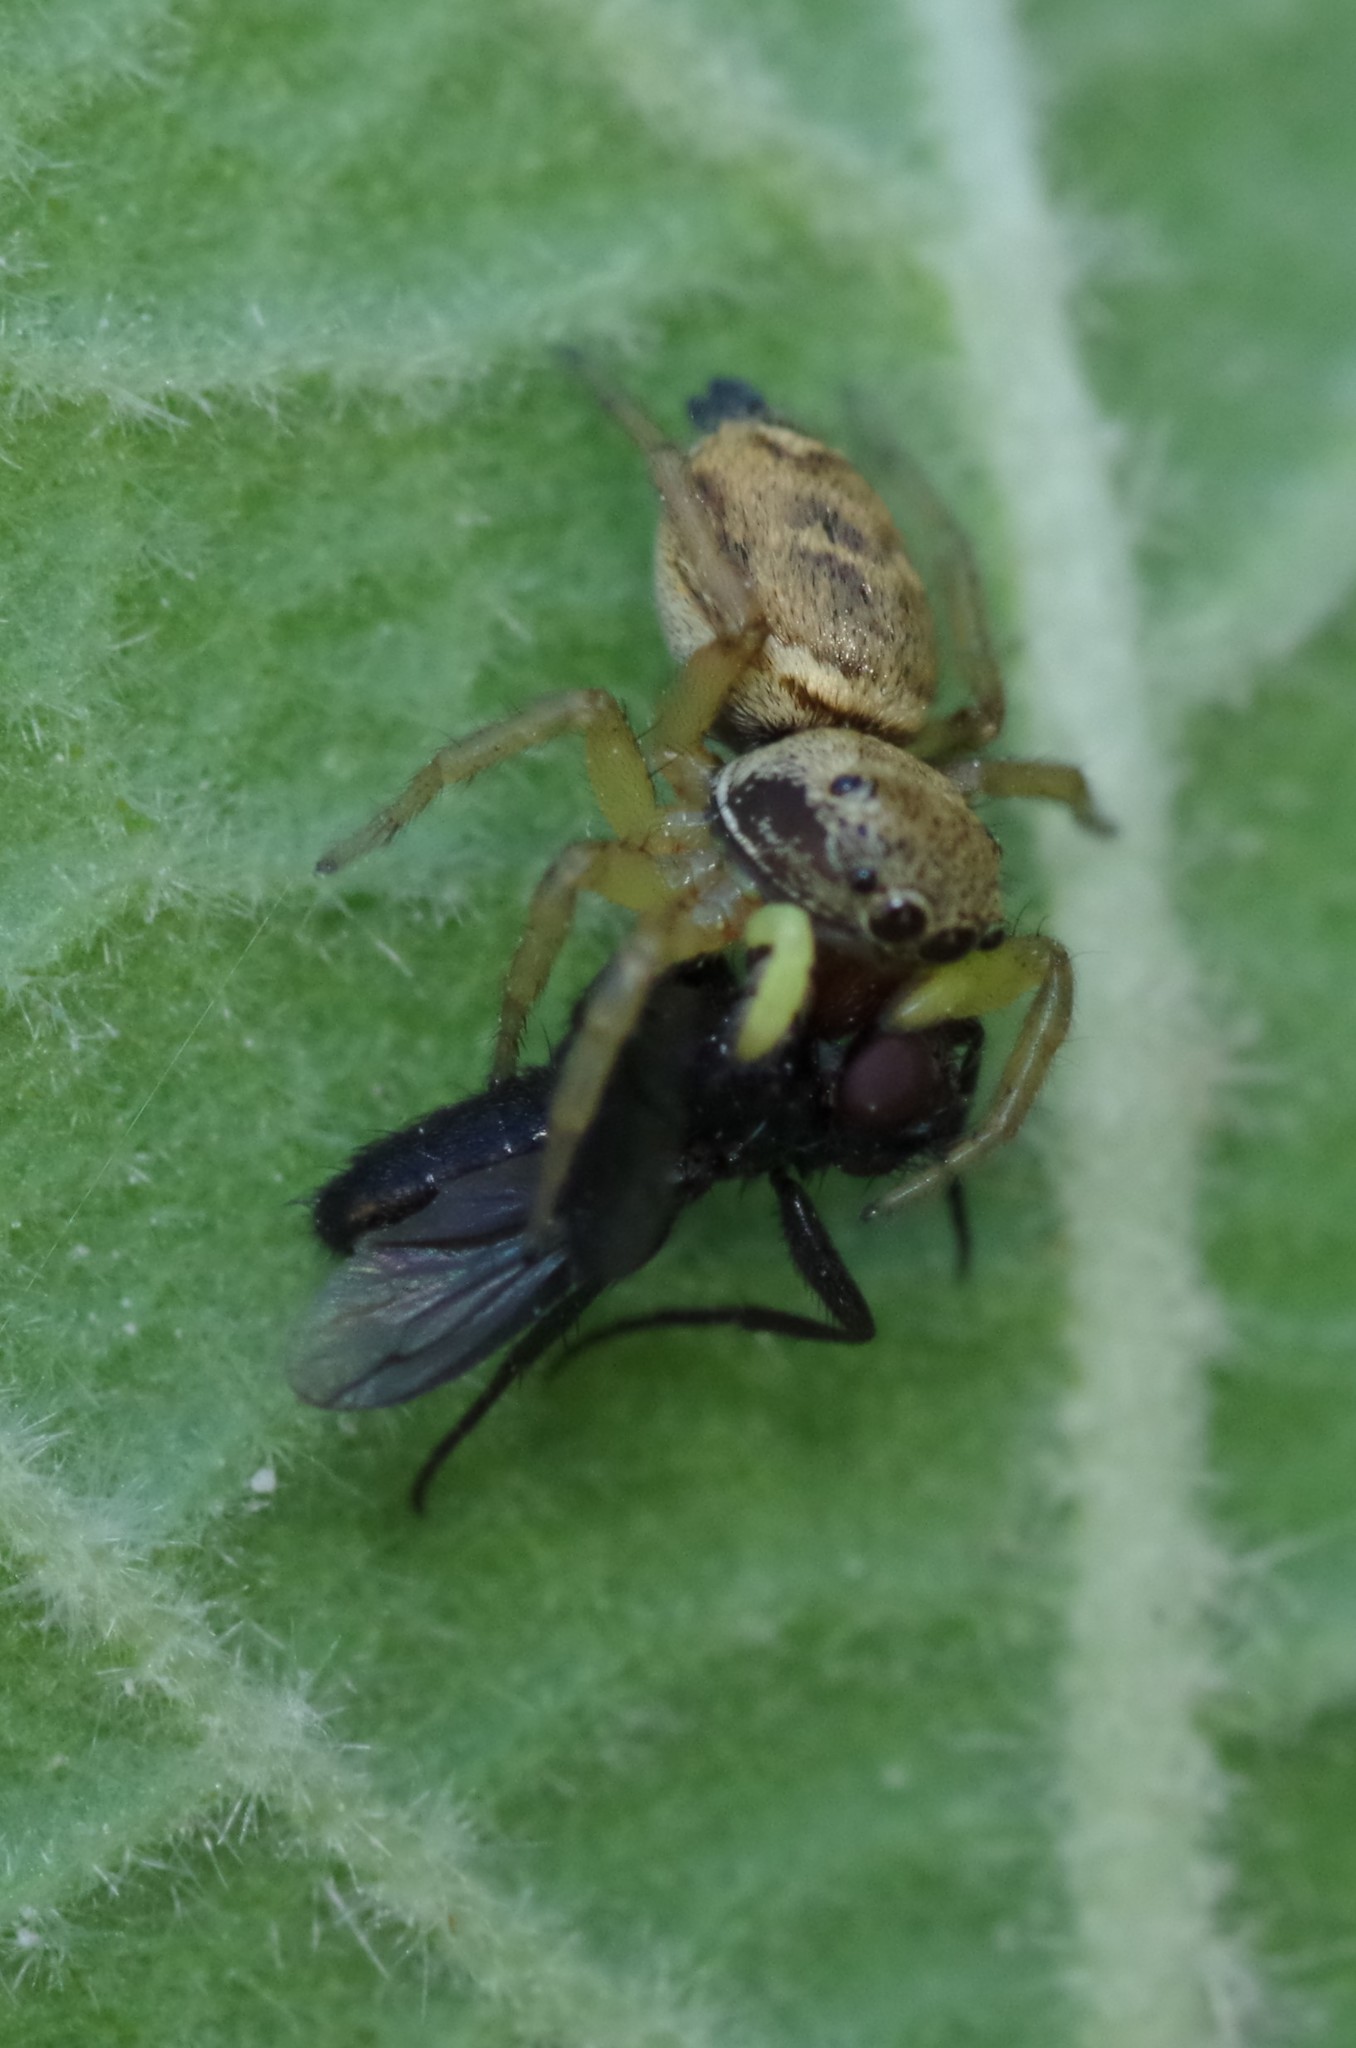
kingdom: Animalia
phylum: Arthropoda
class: Arachnida
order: Araneae
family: Salticidae
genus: Heliophanus
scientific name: Heliophanus tribulosus
